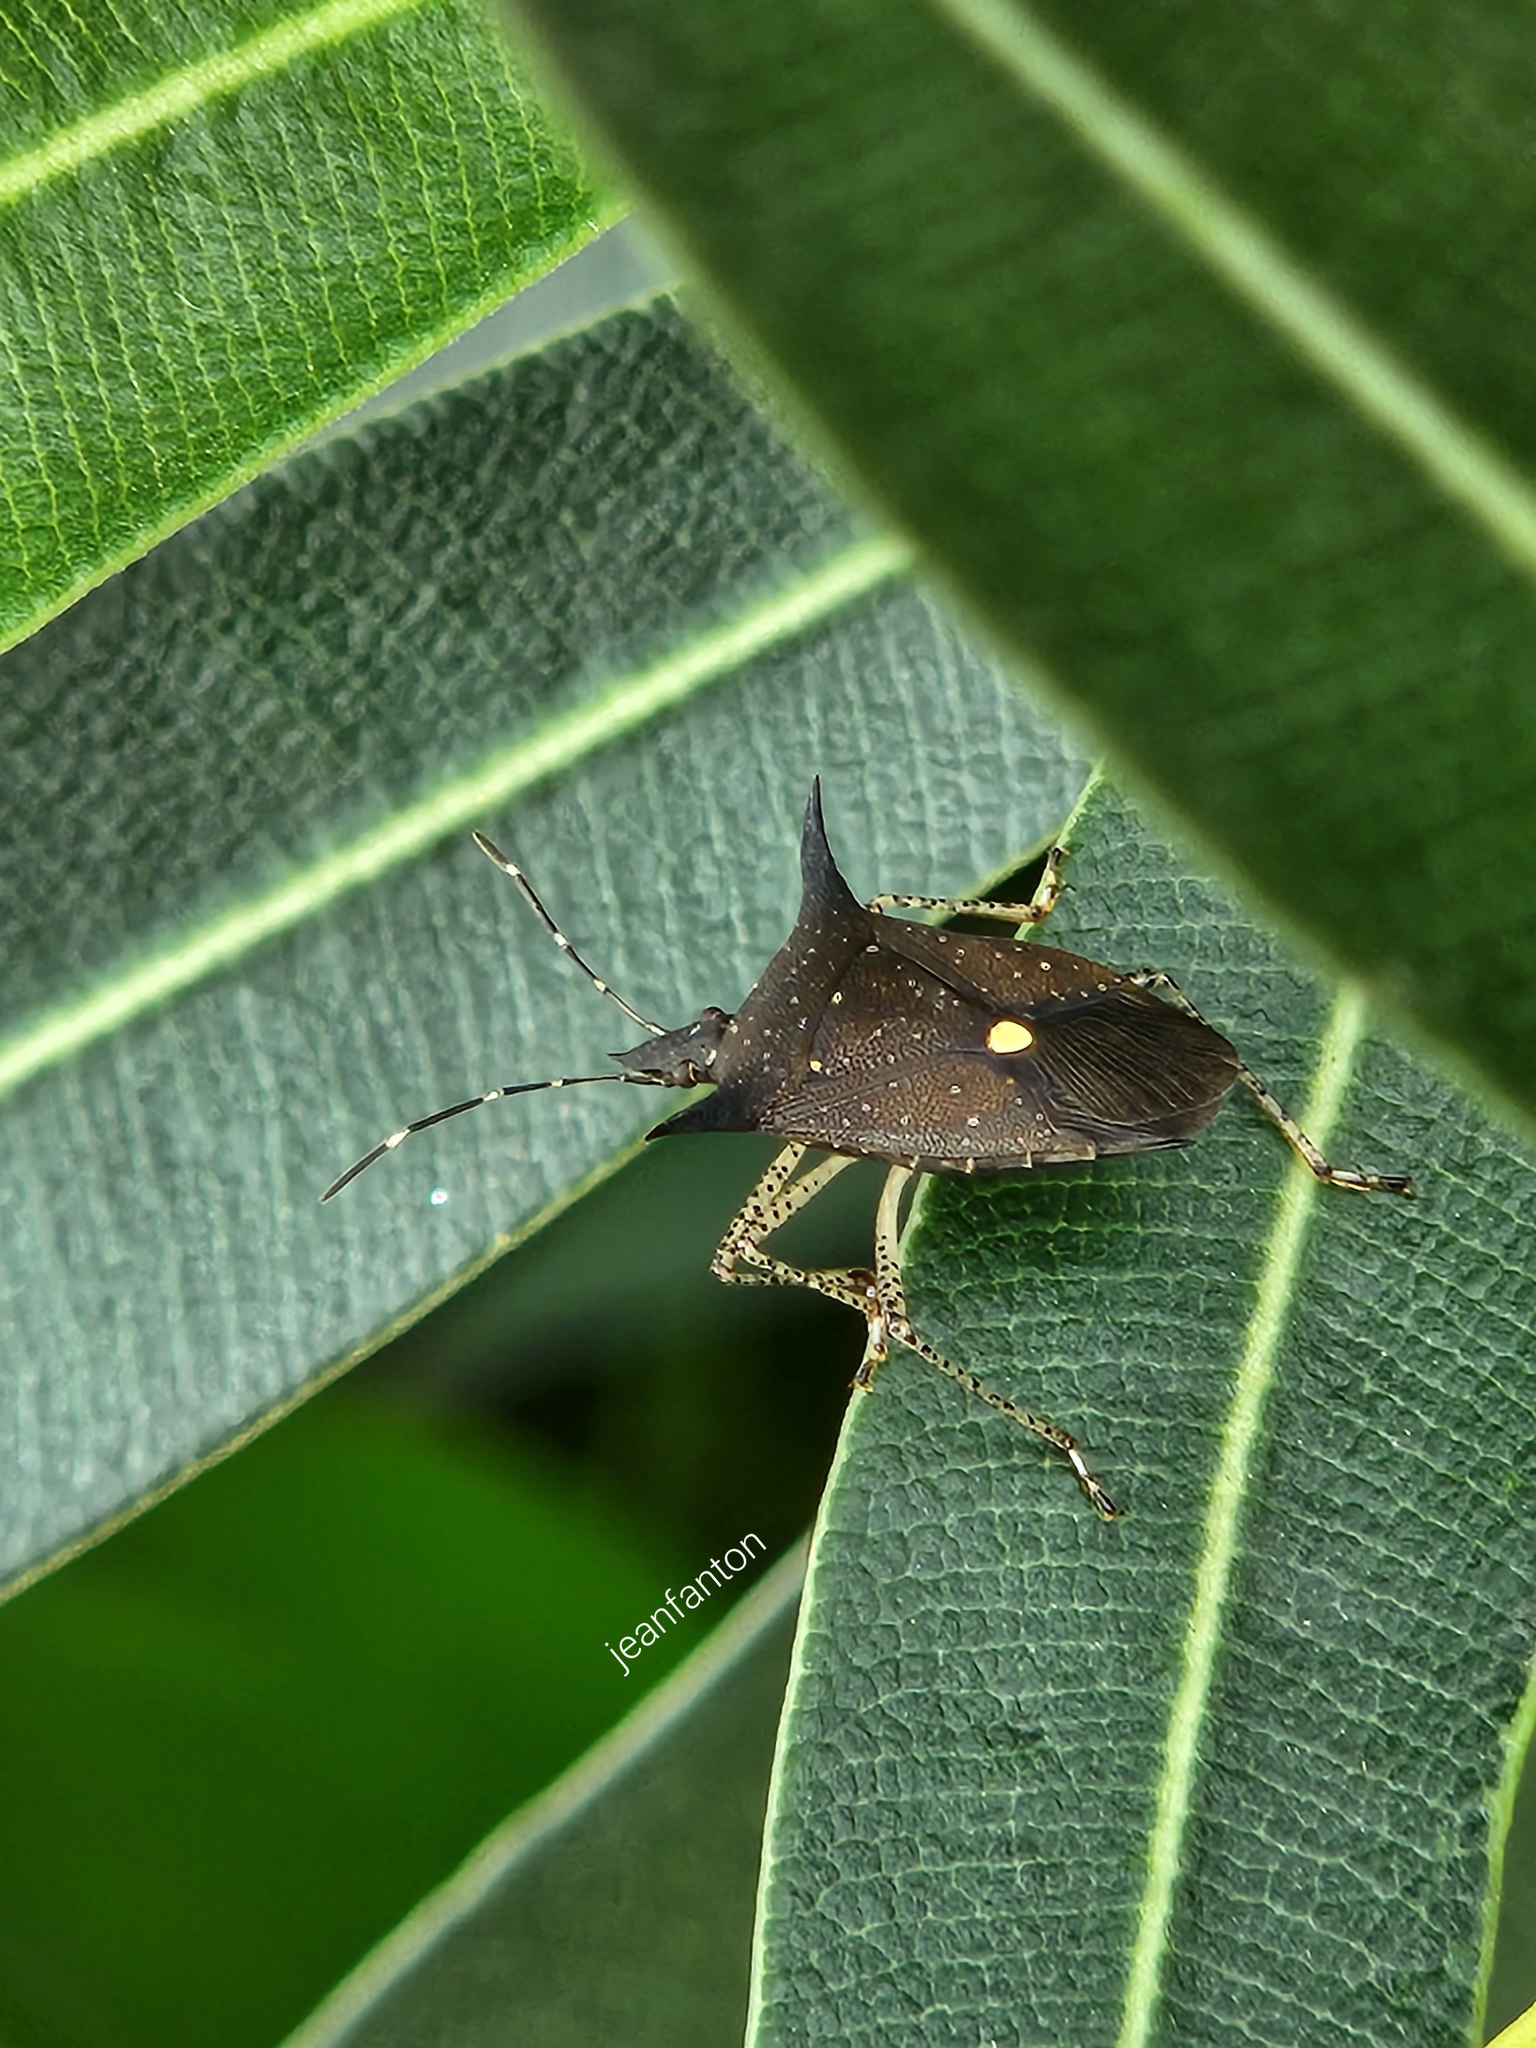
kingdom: Animalia
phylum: Arthropoda
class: Insecta
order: Hemiptera
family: Pentatomidae
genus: Proxys
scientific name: Proxys albopunctulatus
